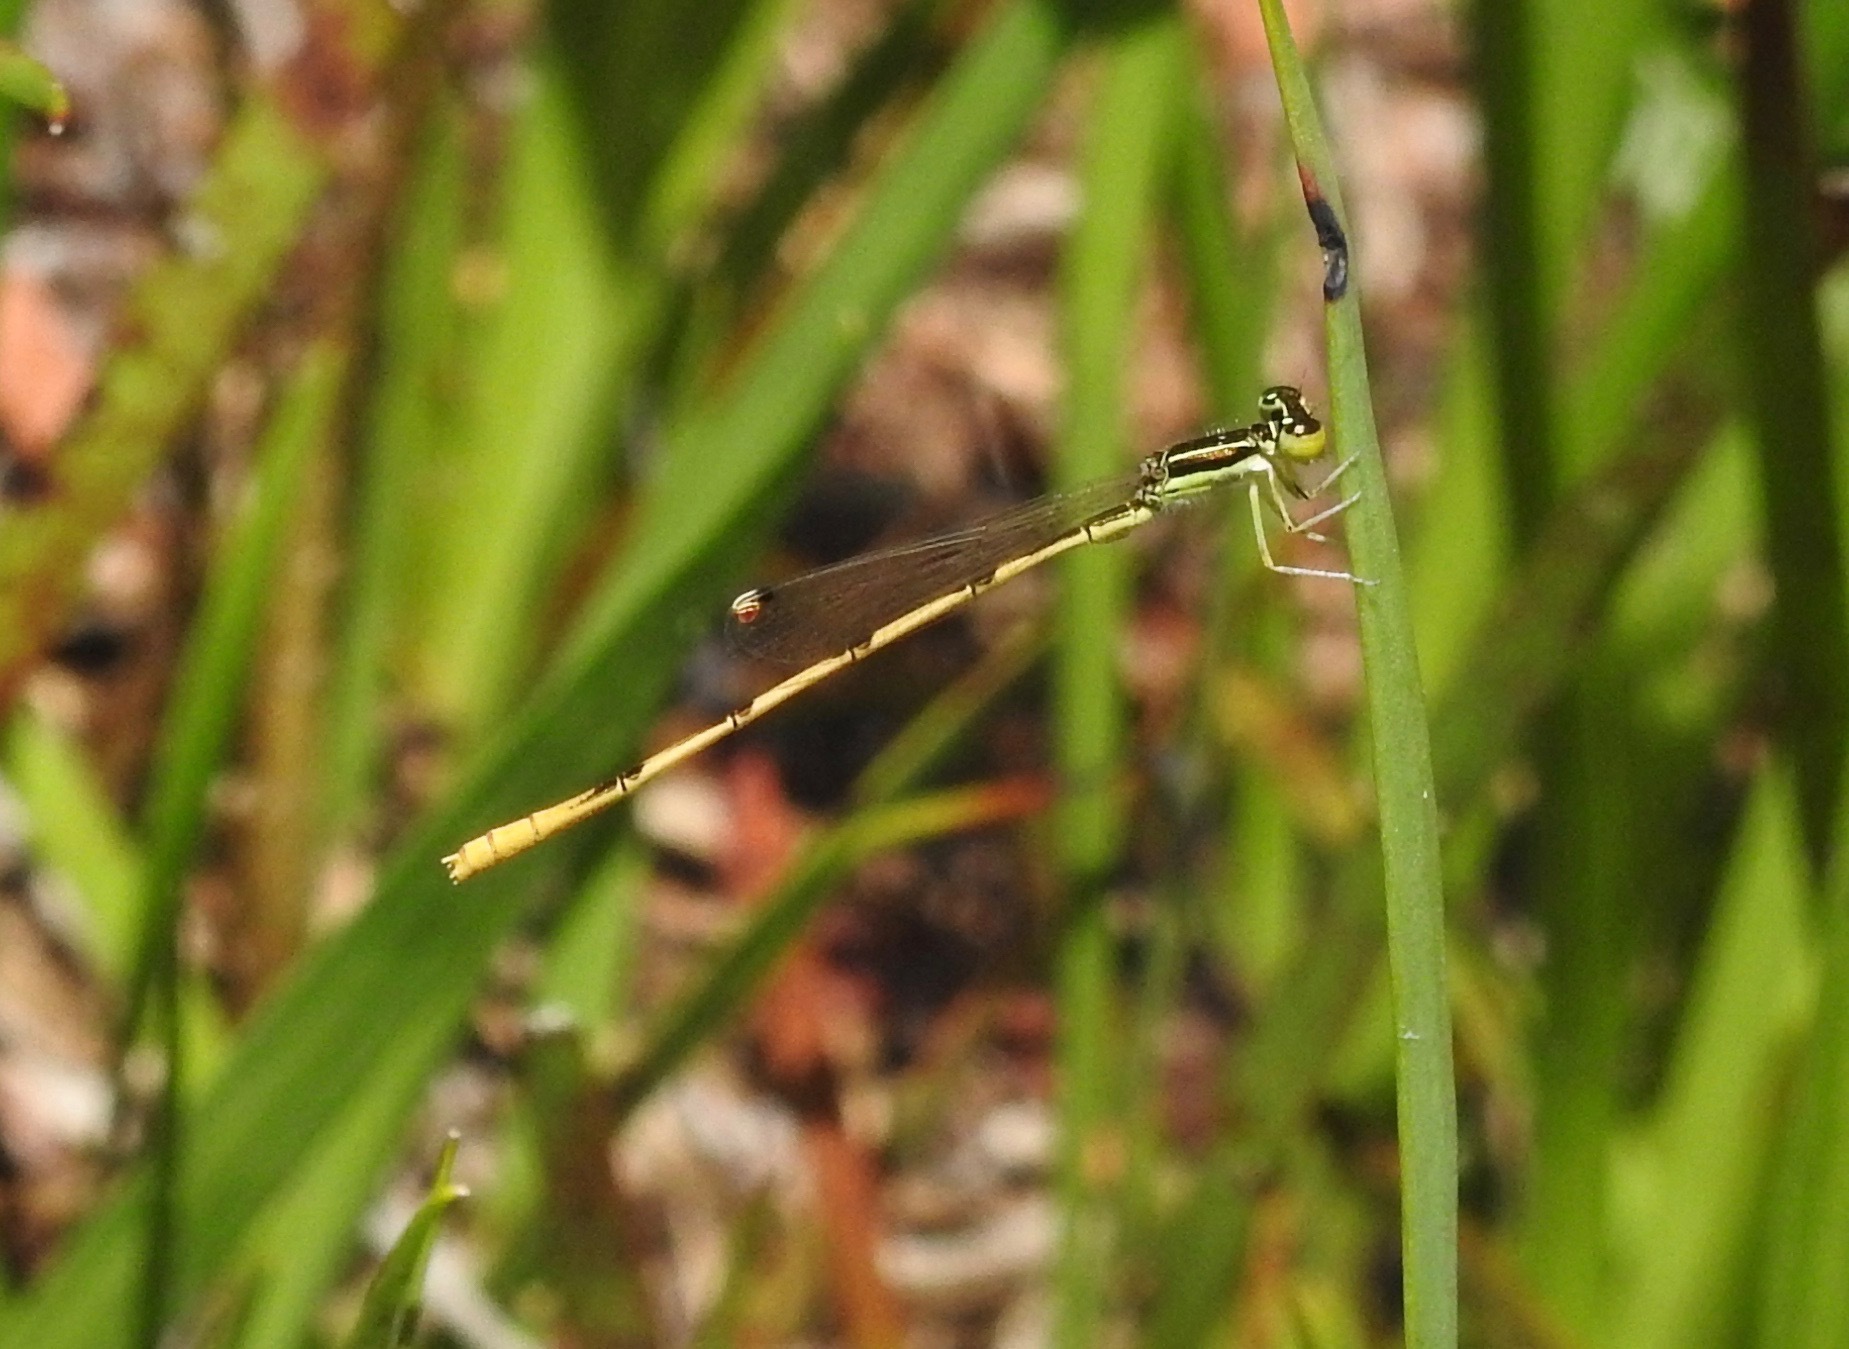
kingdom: Animalia
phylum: Arthropoda
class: Insecta
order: Odonata
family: Coenagrionidae
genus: Ischnura
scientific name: Ischnura hastata
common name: Citrine forktail
